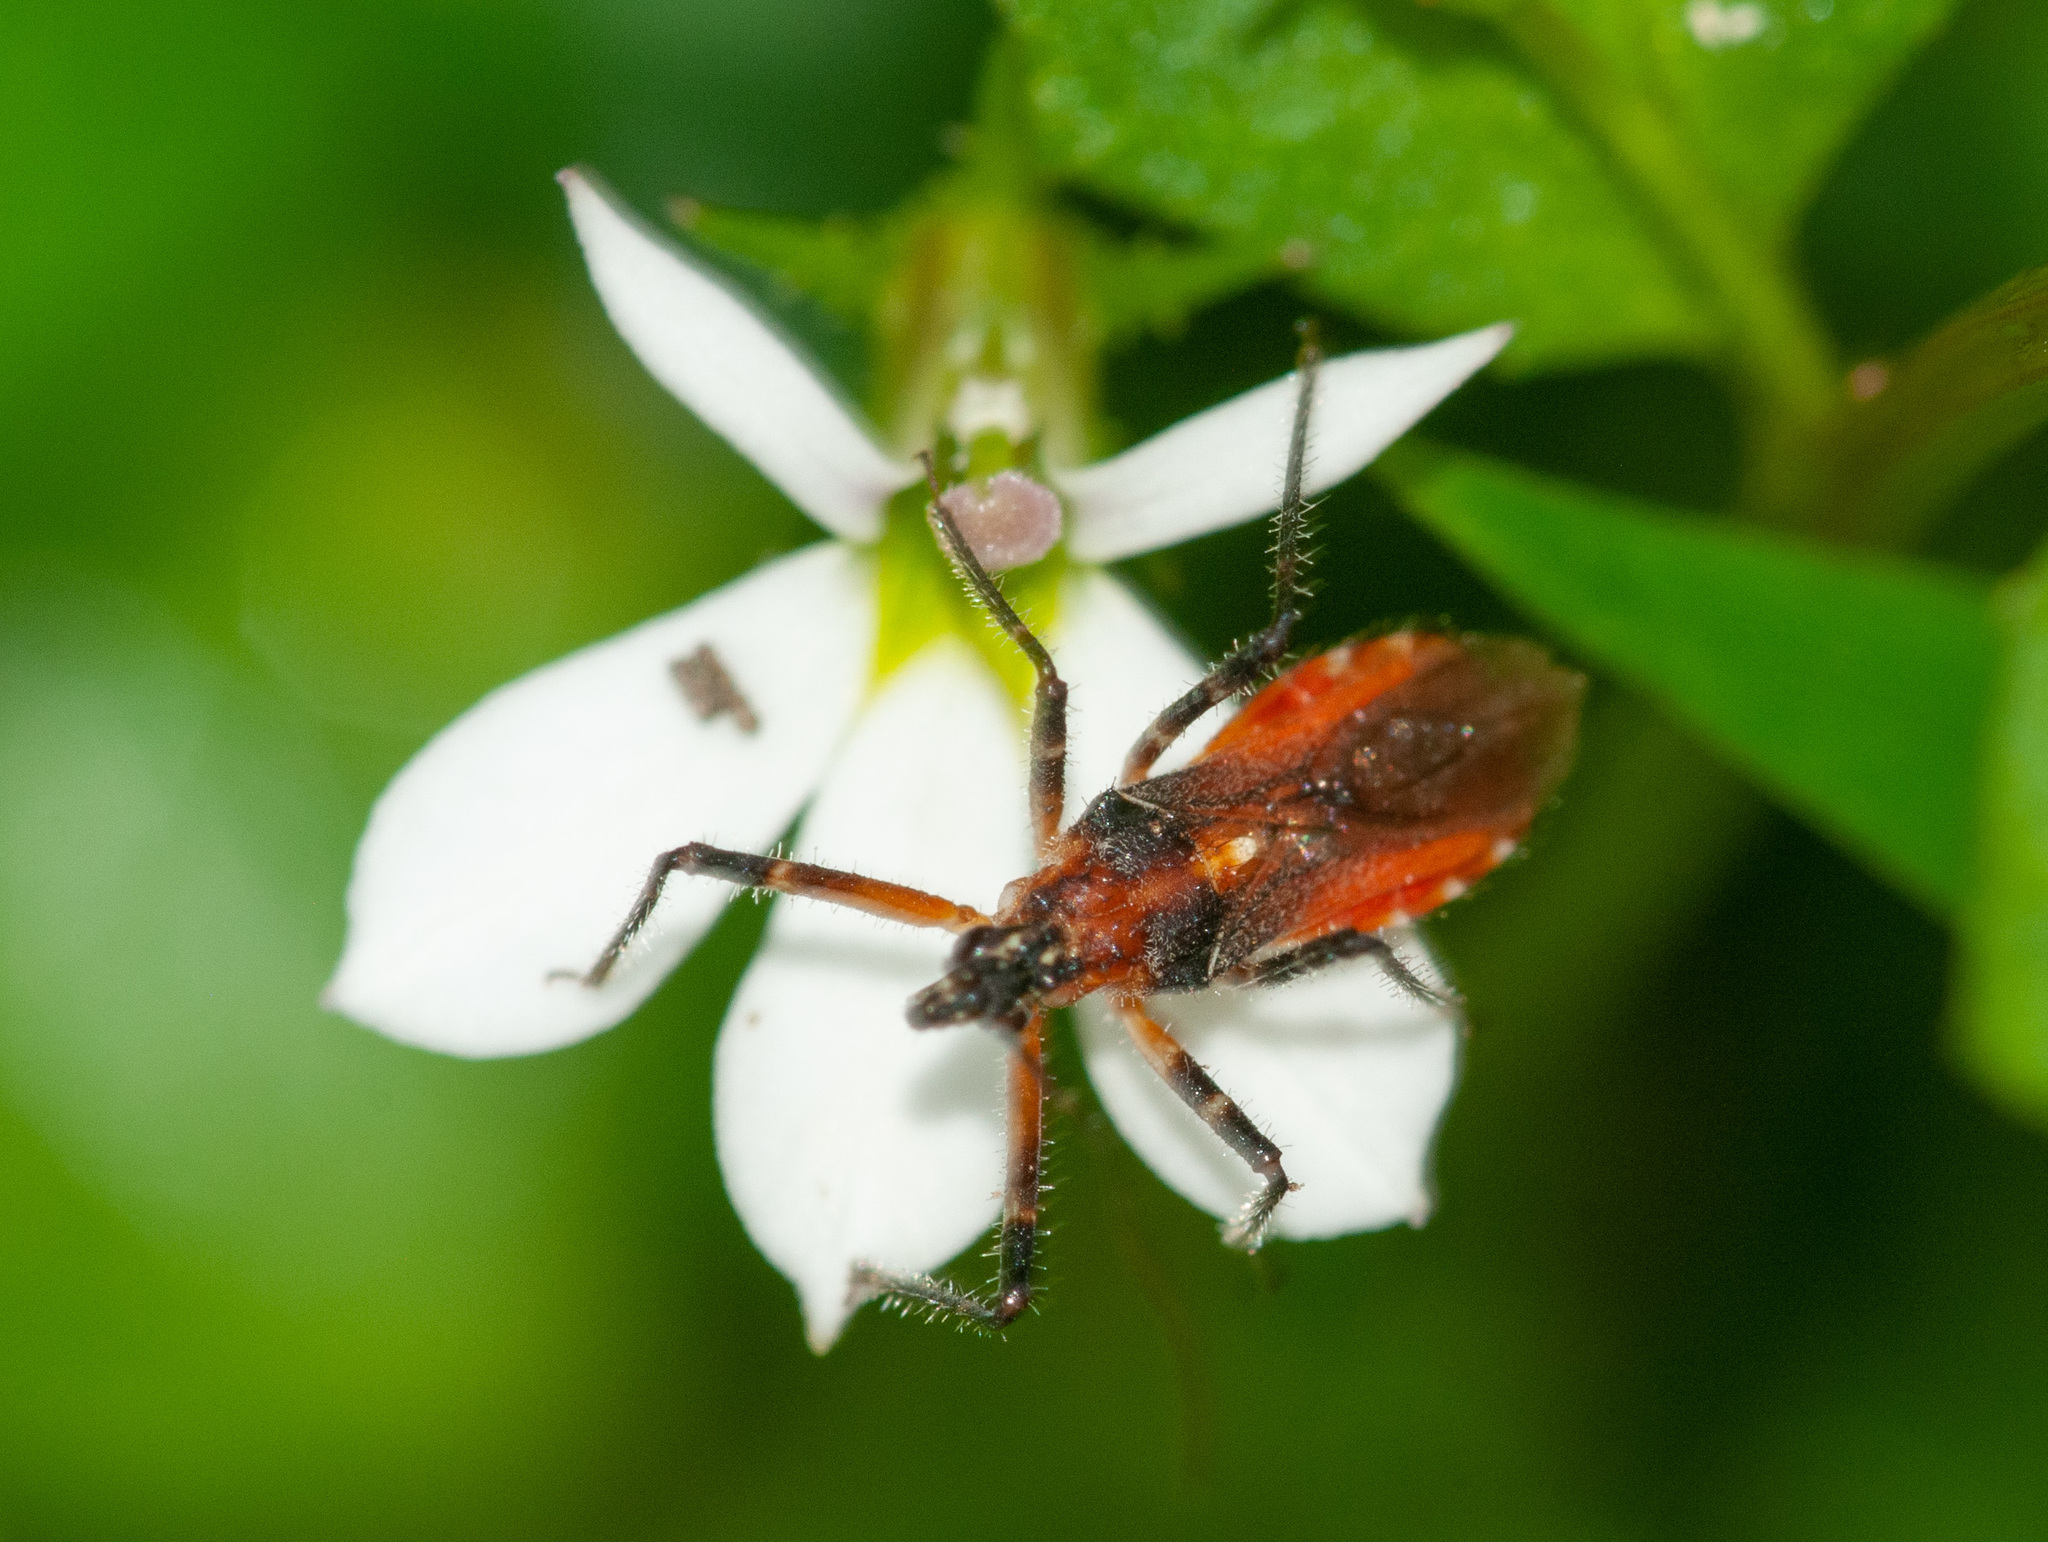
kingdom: Animalia
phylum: Arthropoda
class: Insecta
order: Hemiptera
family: Reduviidae
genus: Trachylestes
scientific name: Trachylestes aspericollis
